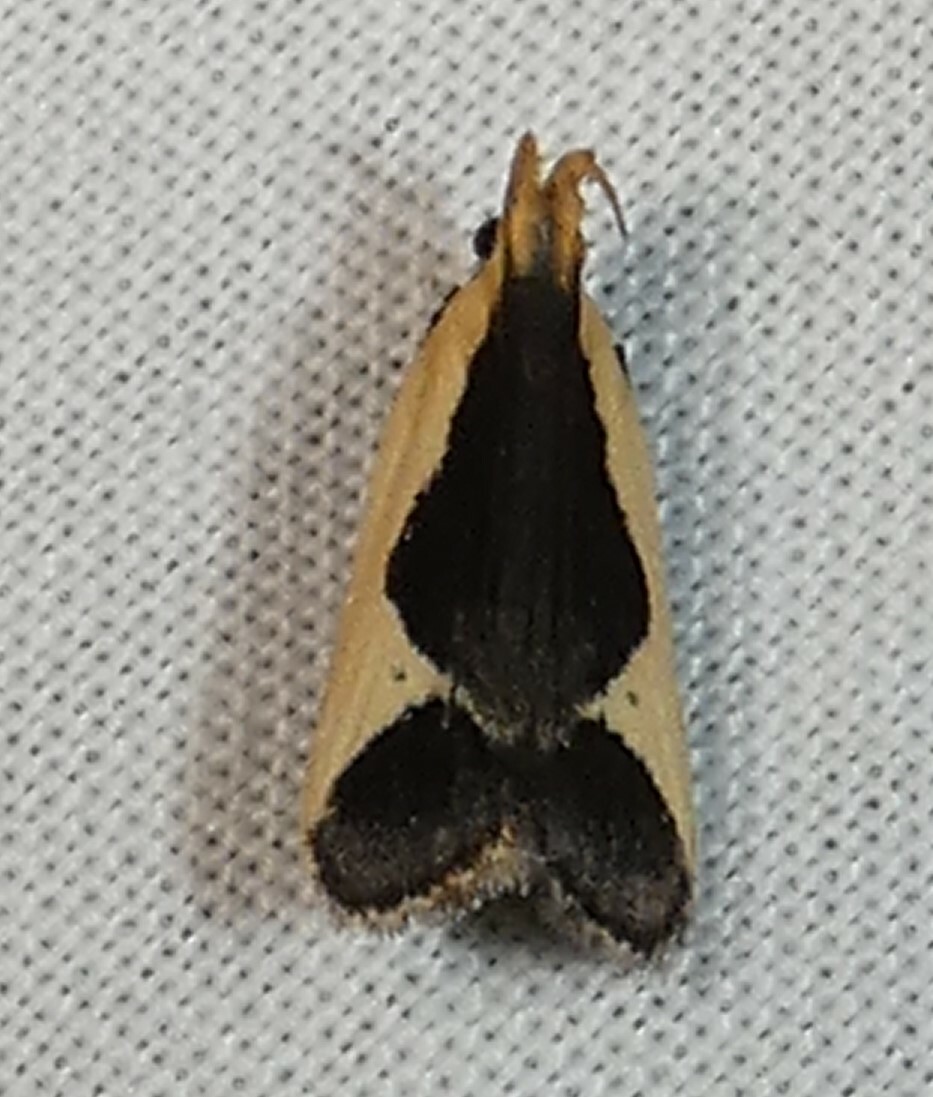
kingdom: Animalia
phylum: Arthropoda
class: Insecta
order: Lepidoptera
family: Gelechiidae
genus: Dichomeris
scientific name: Dichomeris flavocostella
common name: Cream-edged dichomeris moth
